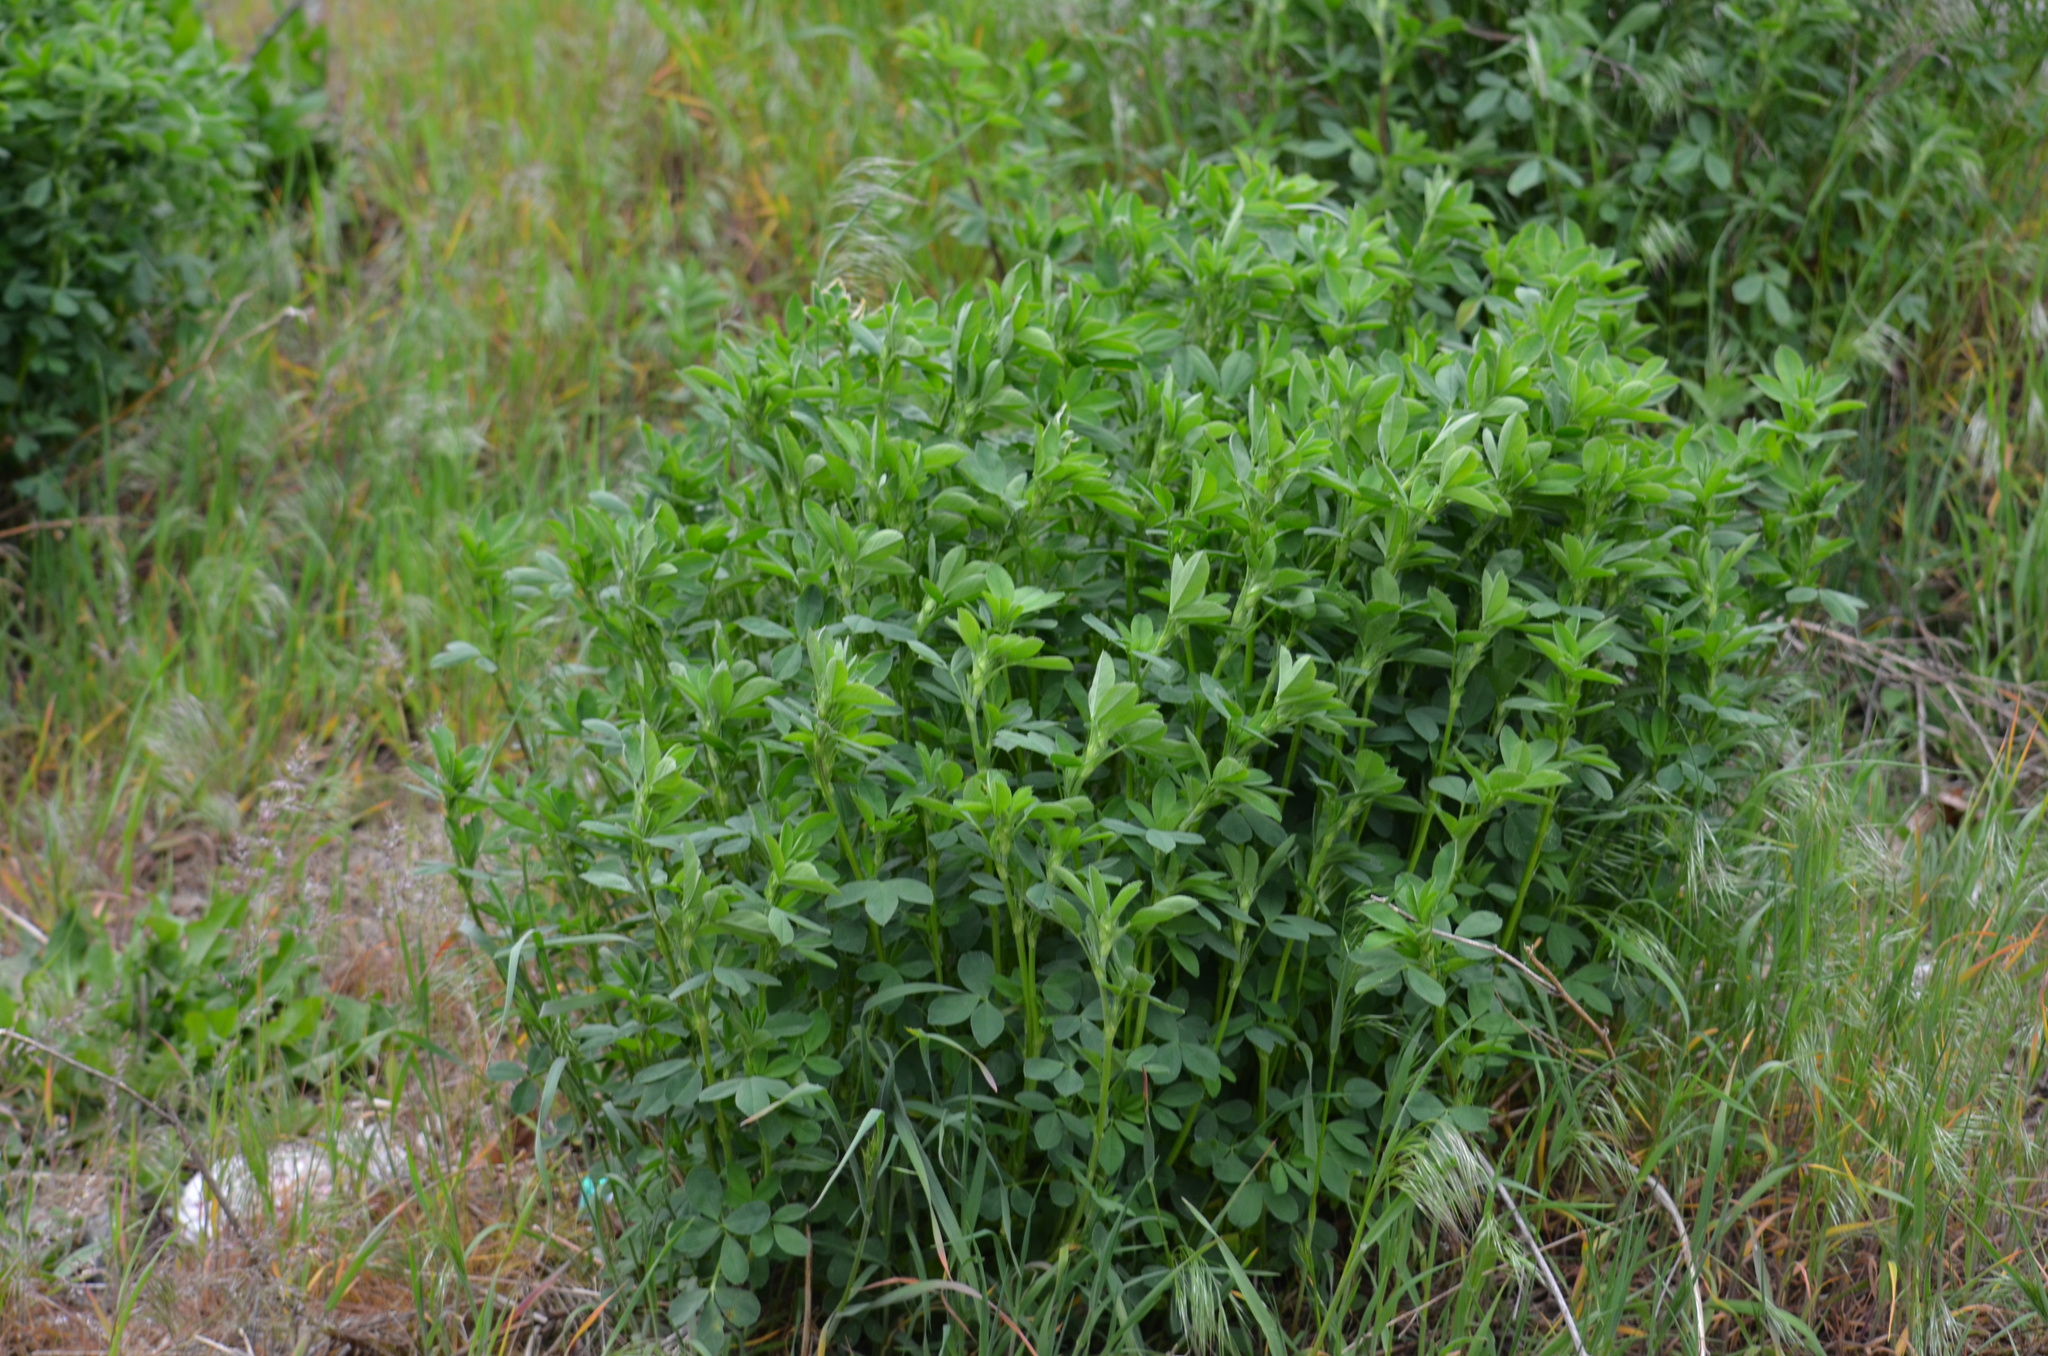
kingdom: Plantae
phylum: Tracheophyta
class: Magnoliopsida
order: Fabales
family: Fabaceae
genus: Medicago
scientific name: Medicago
